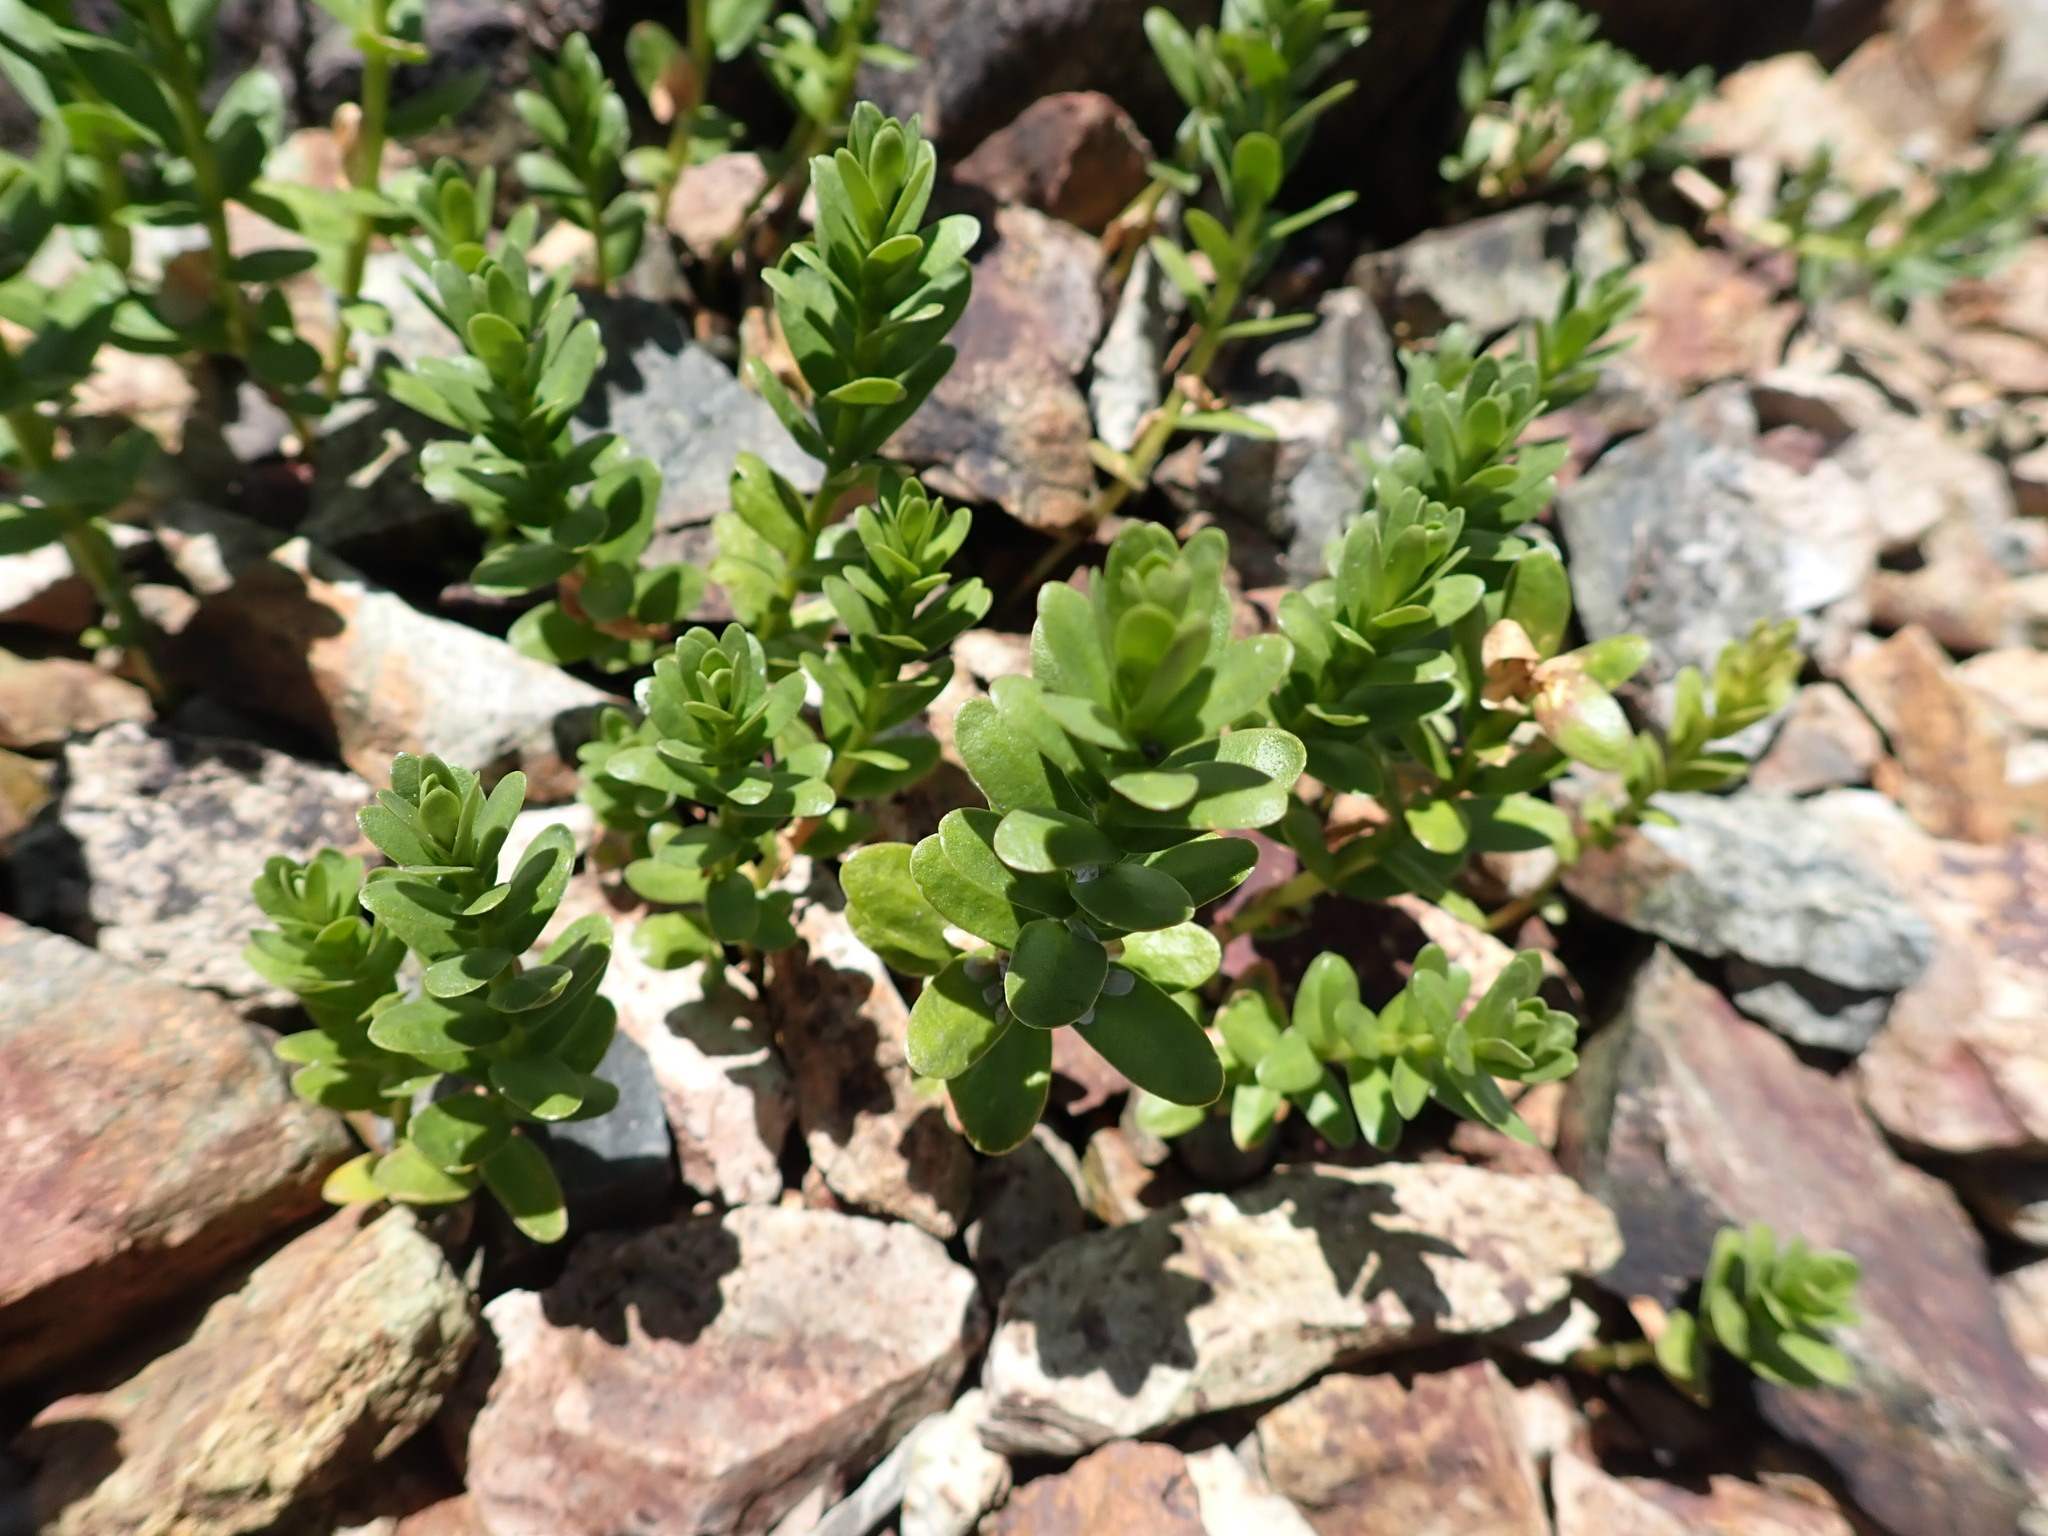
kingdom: Plantae
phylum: Tracheophyta
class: Magnoliopsida
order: Ericales
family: Primulaceae
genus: Lysimachia
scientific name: Lysimachia maritima
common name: Sea milkwort
